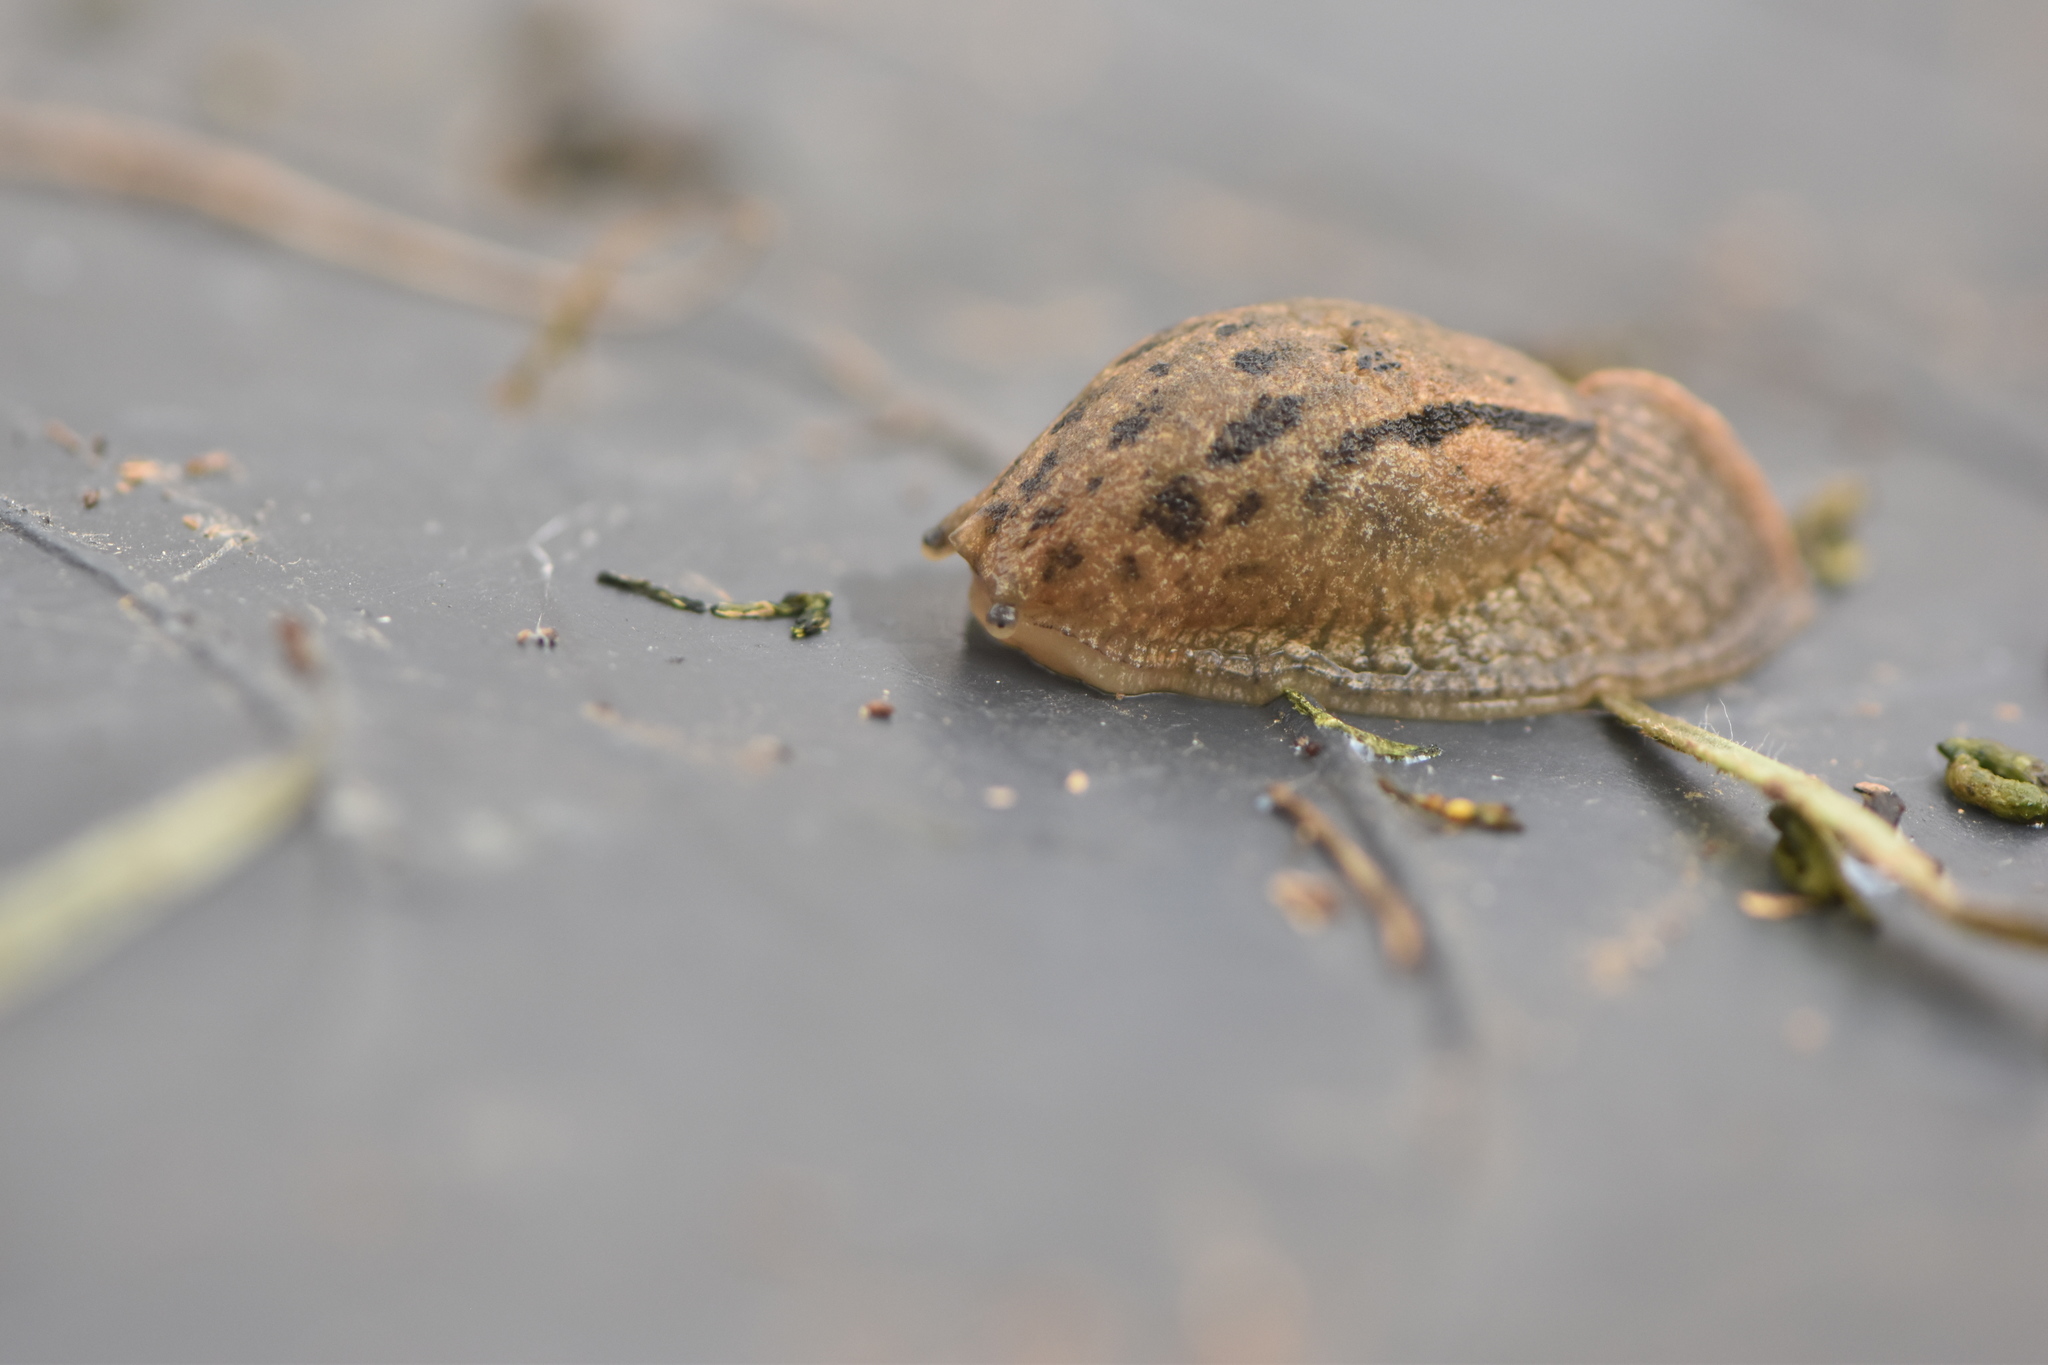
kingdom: Animalia
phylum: Mollusca
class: Gastropoda
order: Stylommatophora
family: Parmacellidae
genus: Drusia
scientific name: Drusia valenciennii
